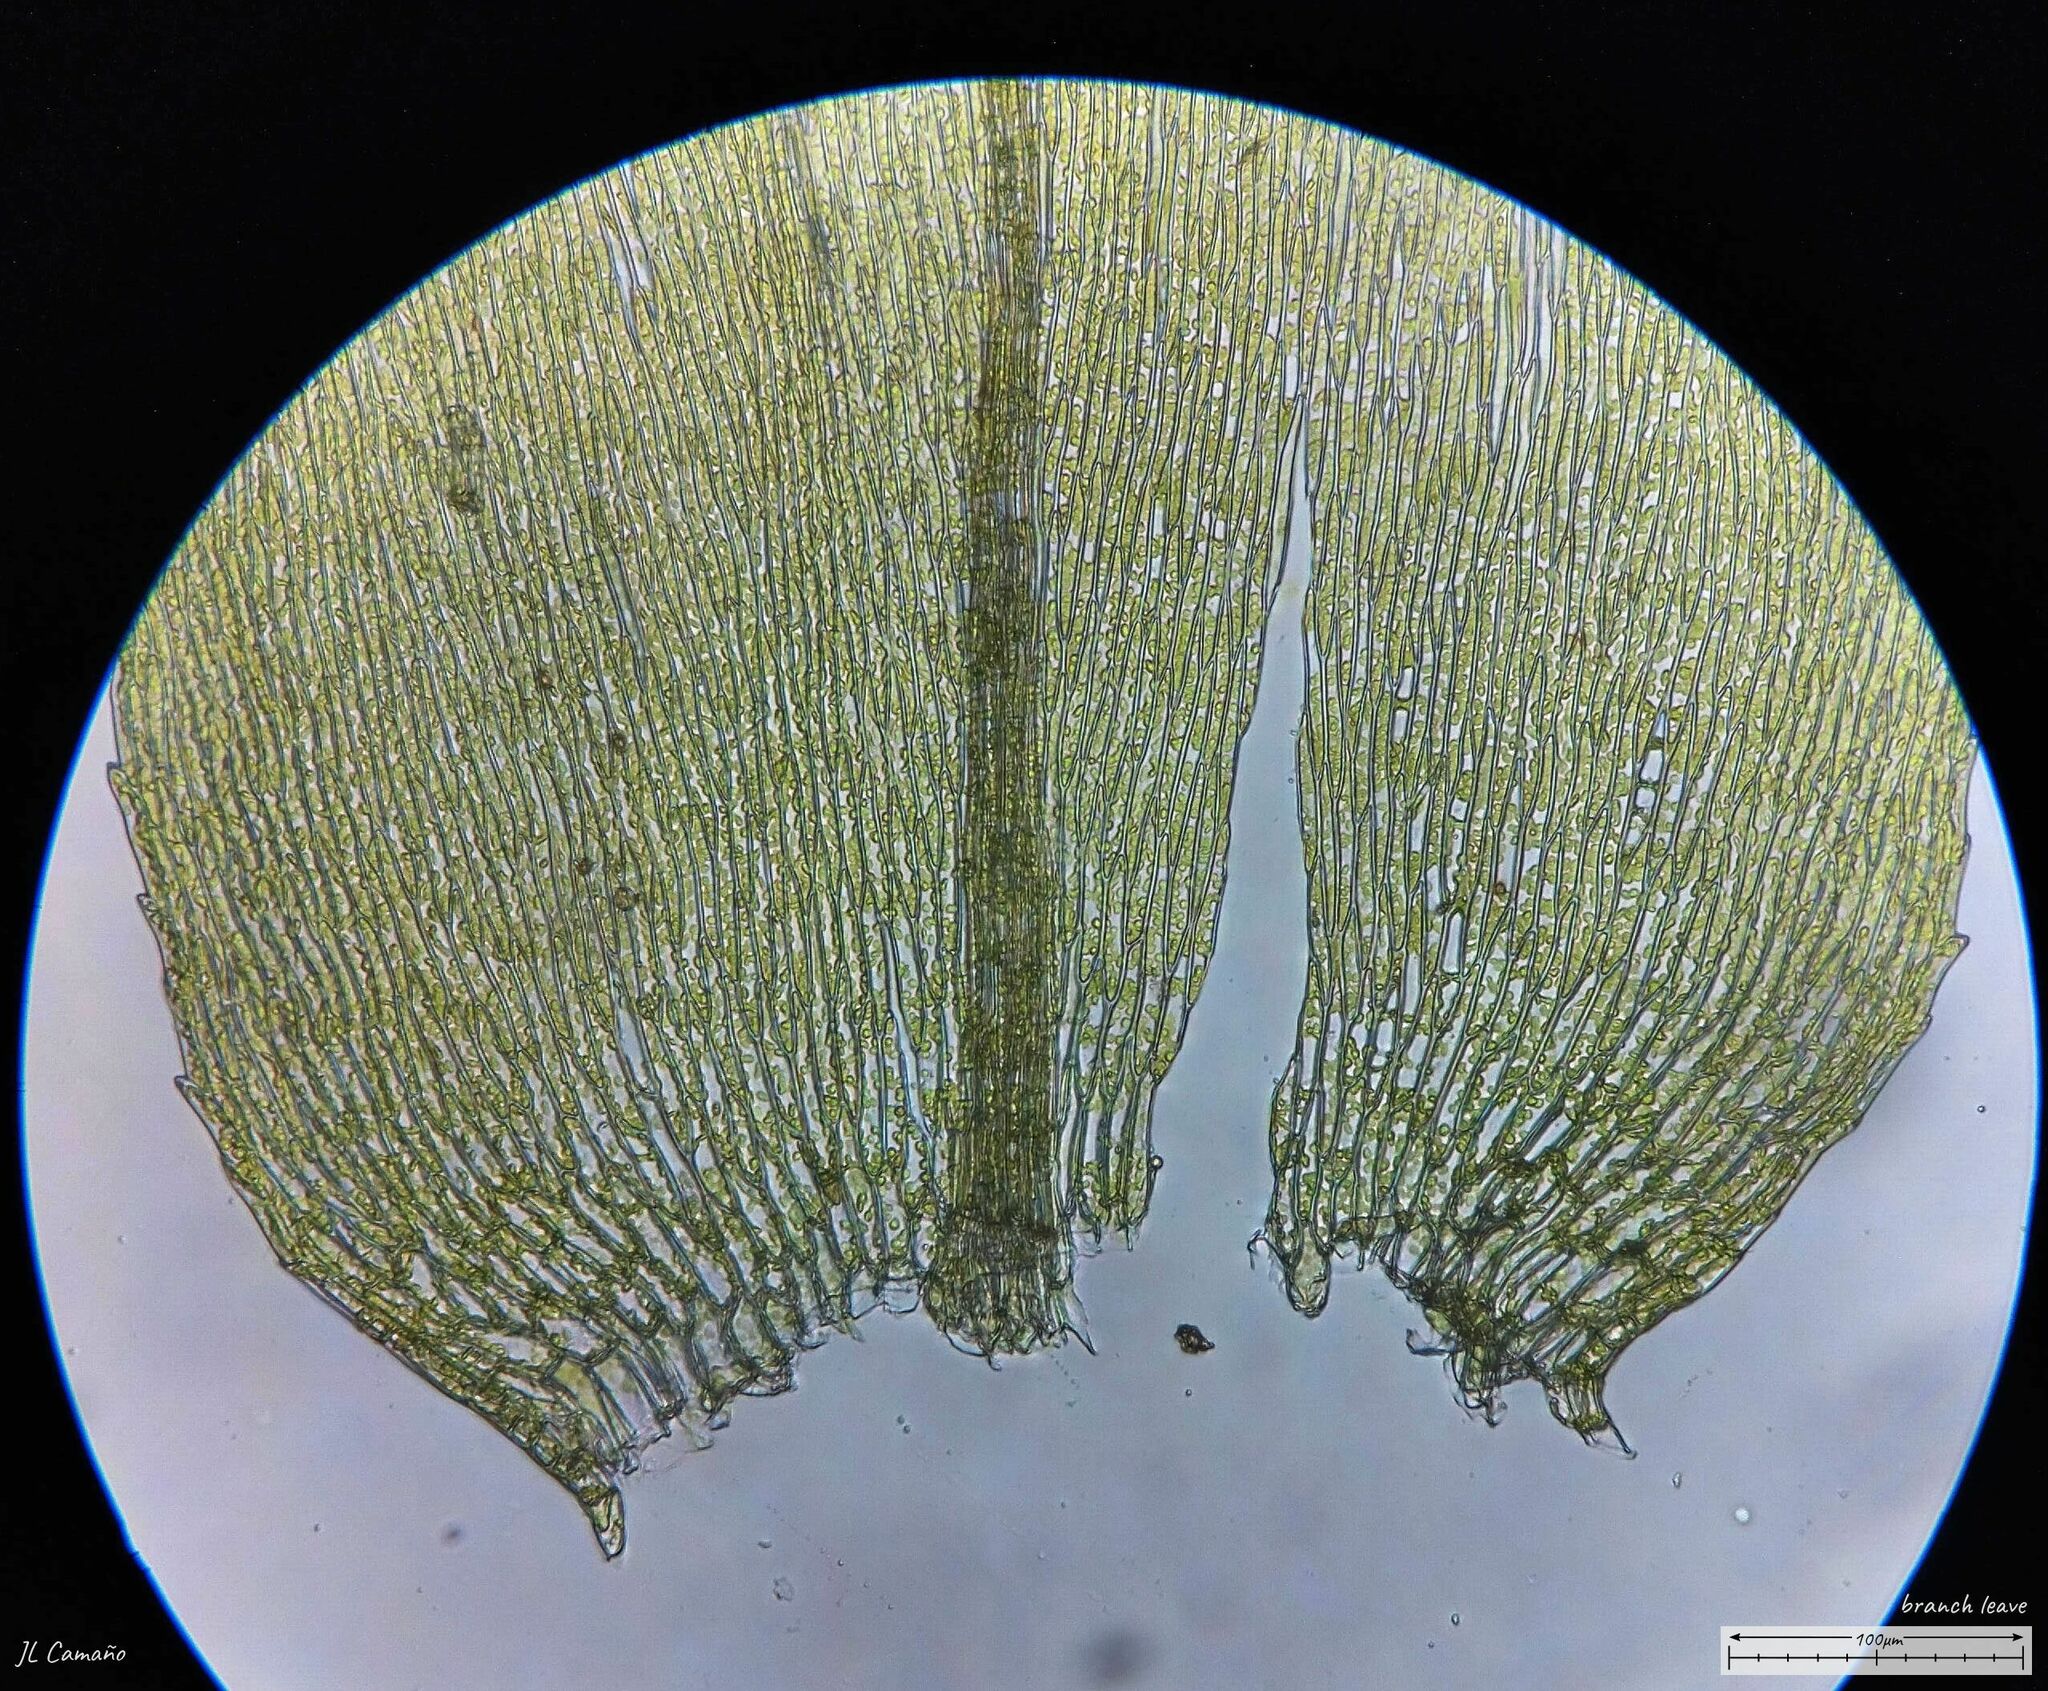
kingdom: Plantae
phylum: Bryophyta
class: Bryopsida
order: Hypnales
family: Brachytheciaceae
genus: Brachythecium
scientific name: Brachythecium rutabulum
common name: Rough-stalked feather-moss
